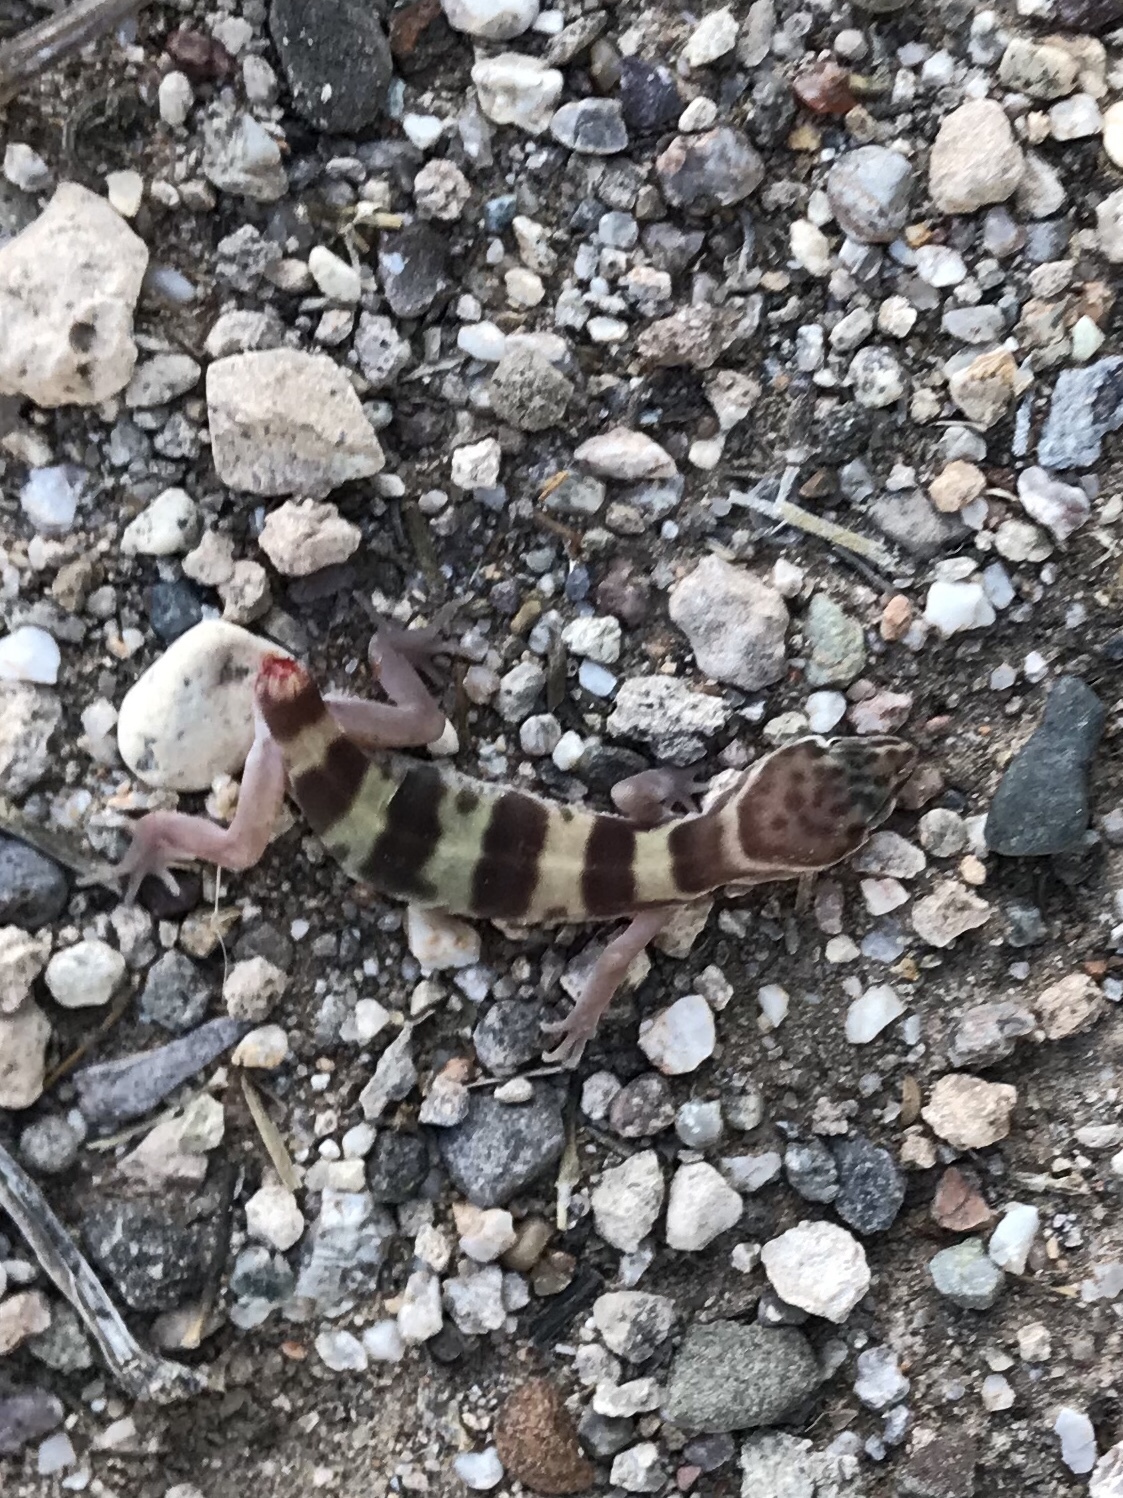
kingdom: Animalia
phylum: Chordata
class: Squamata
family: Eublepharidae
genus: Coleonyx
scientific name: Coleonyx variegatus
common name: Western banded gecko
